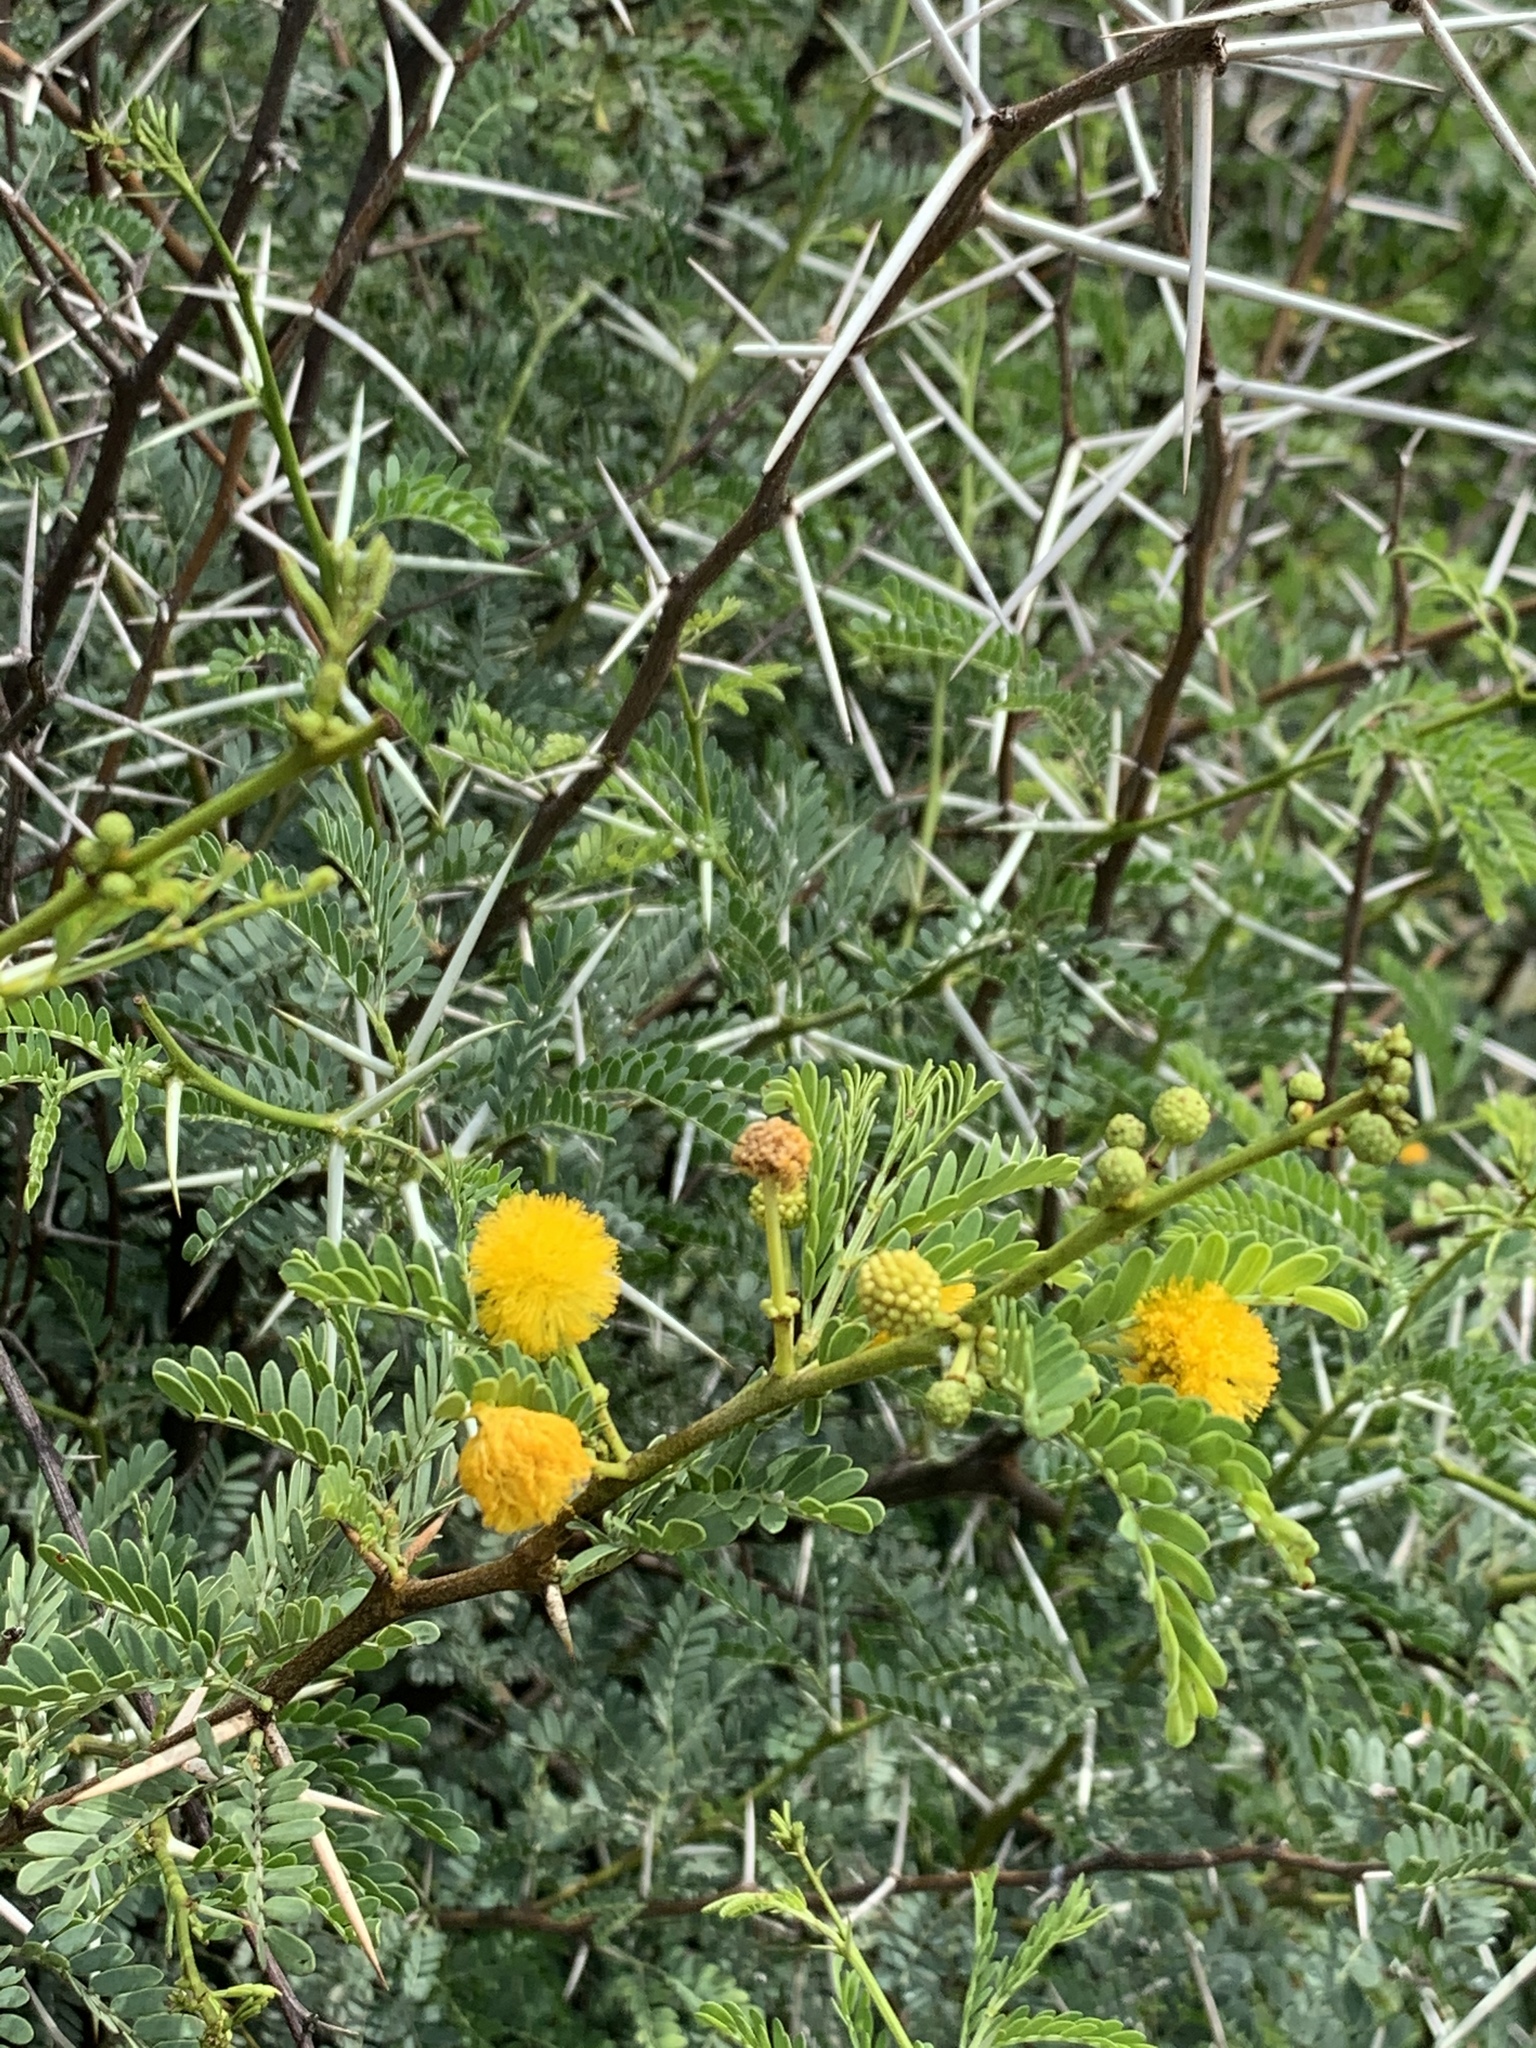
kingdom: Plantae
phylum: Tracheophyta
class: Magnoliopsida
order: Fabales
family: Fabaceae
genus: Vachellia
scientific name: Vachellia karroo
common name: Sweet thorn
